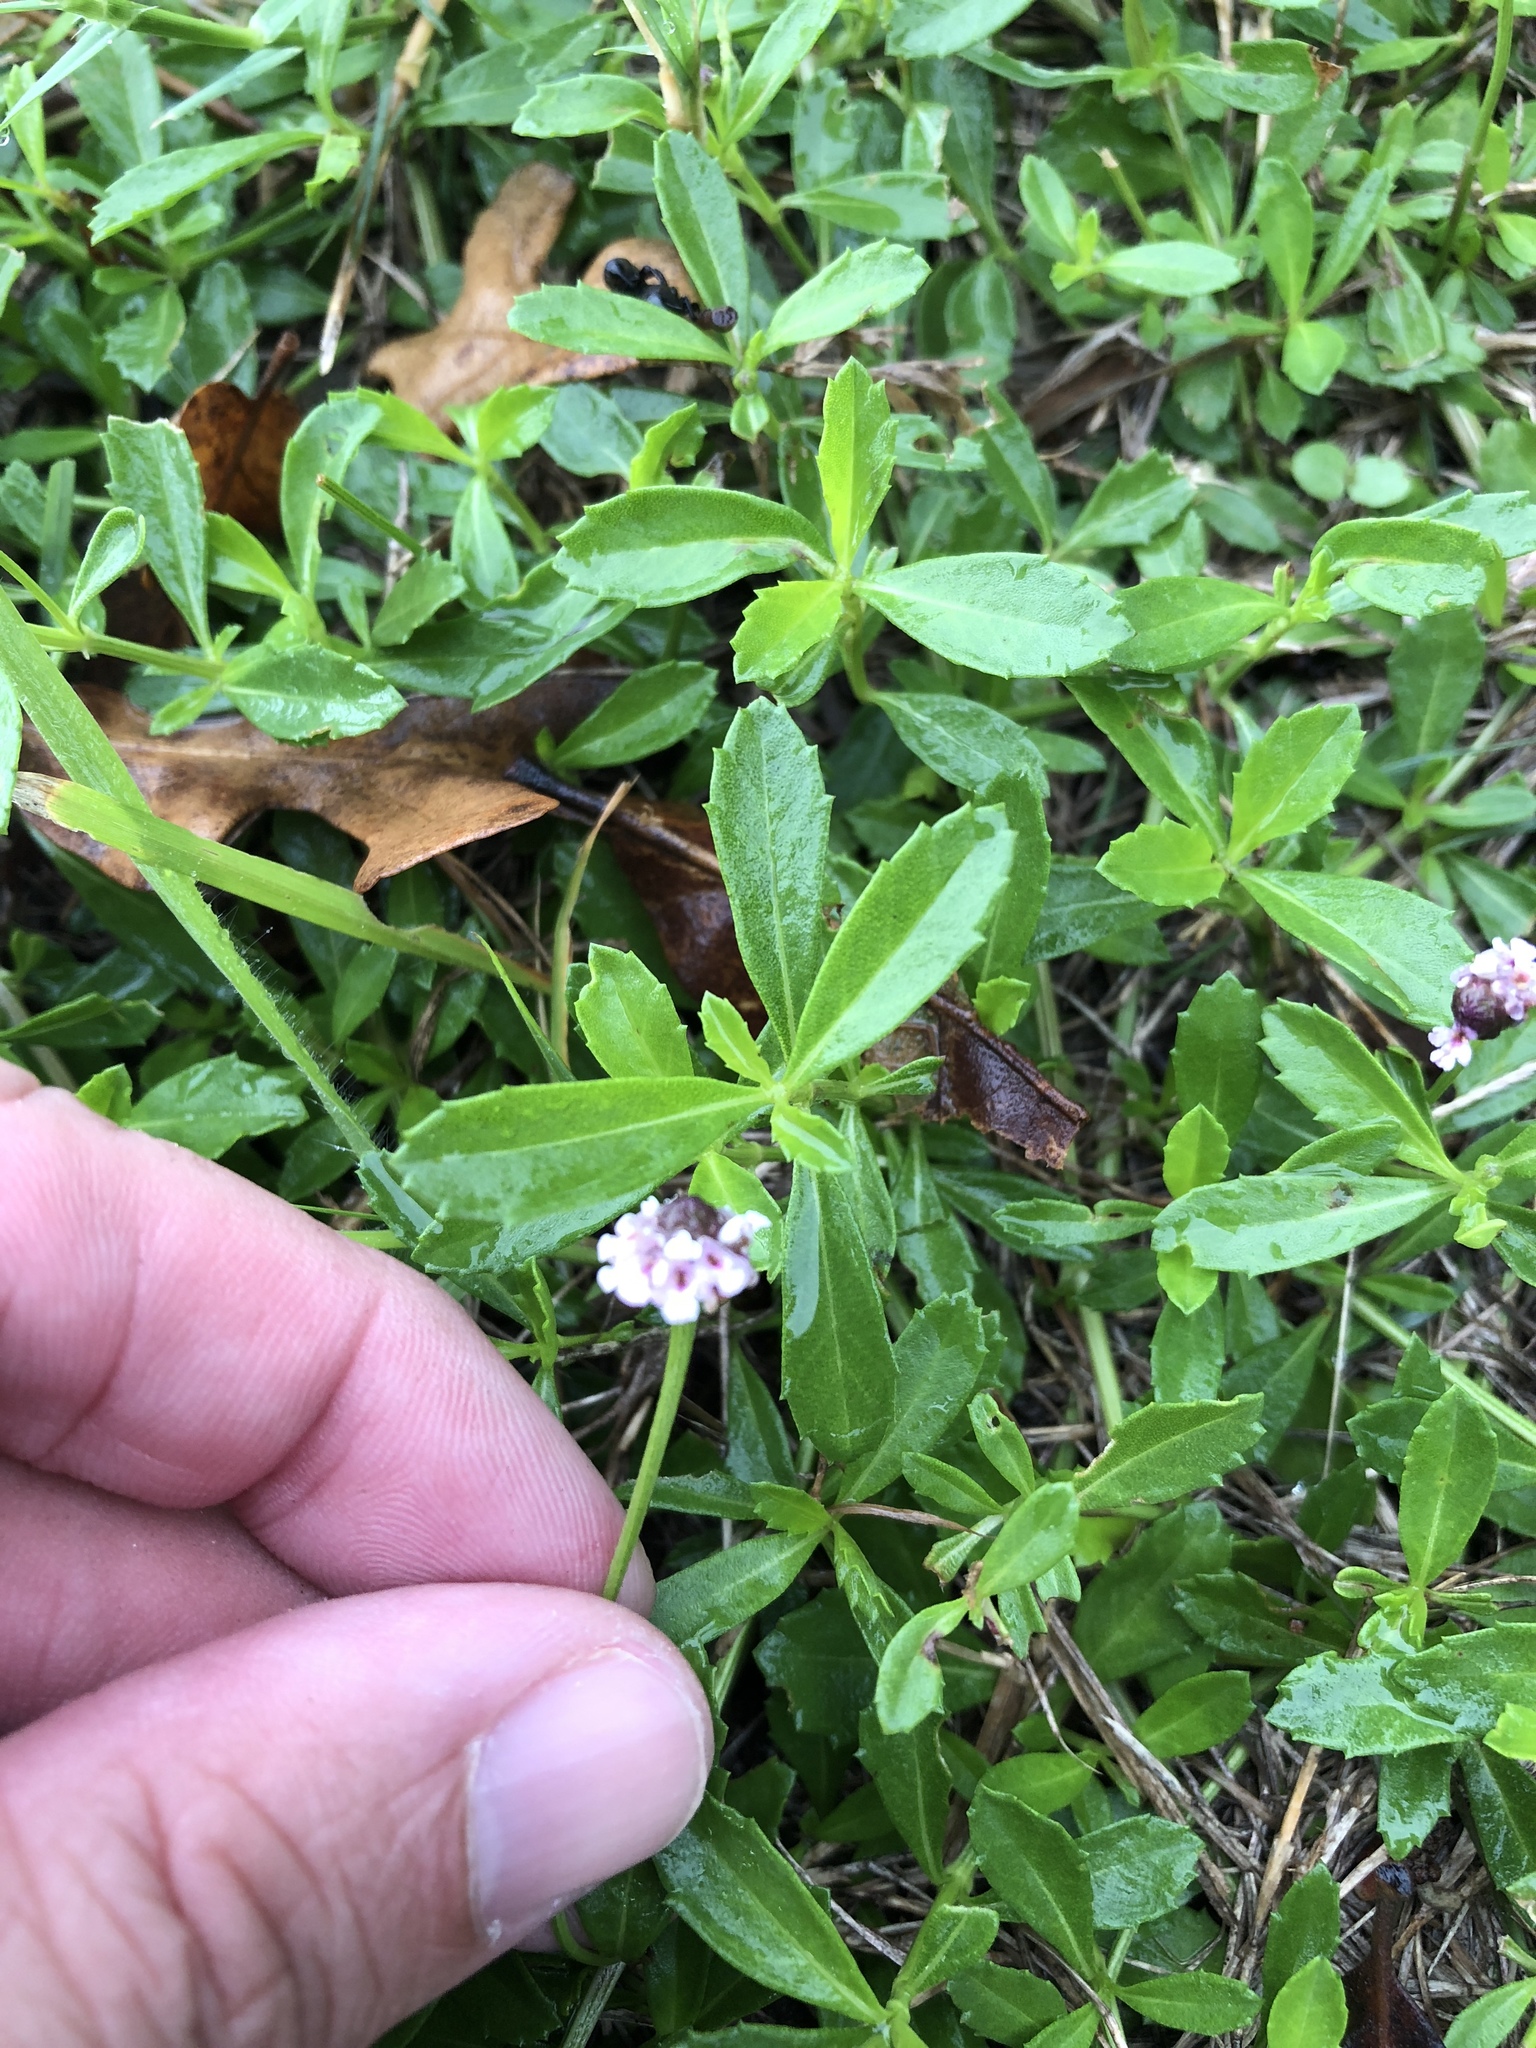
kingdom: Plantae
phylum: Tracheophyta
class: Magnoliopsida
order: Lamiales
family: Verbenaceae
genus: Phyla
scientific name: Phyla nodiflora
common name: Frogfruit
